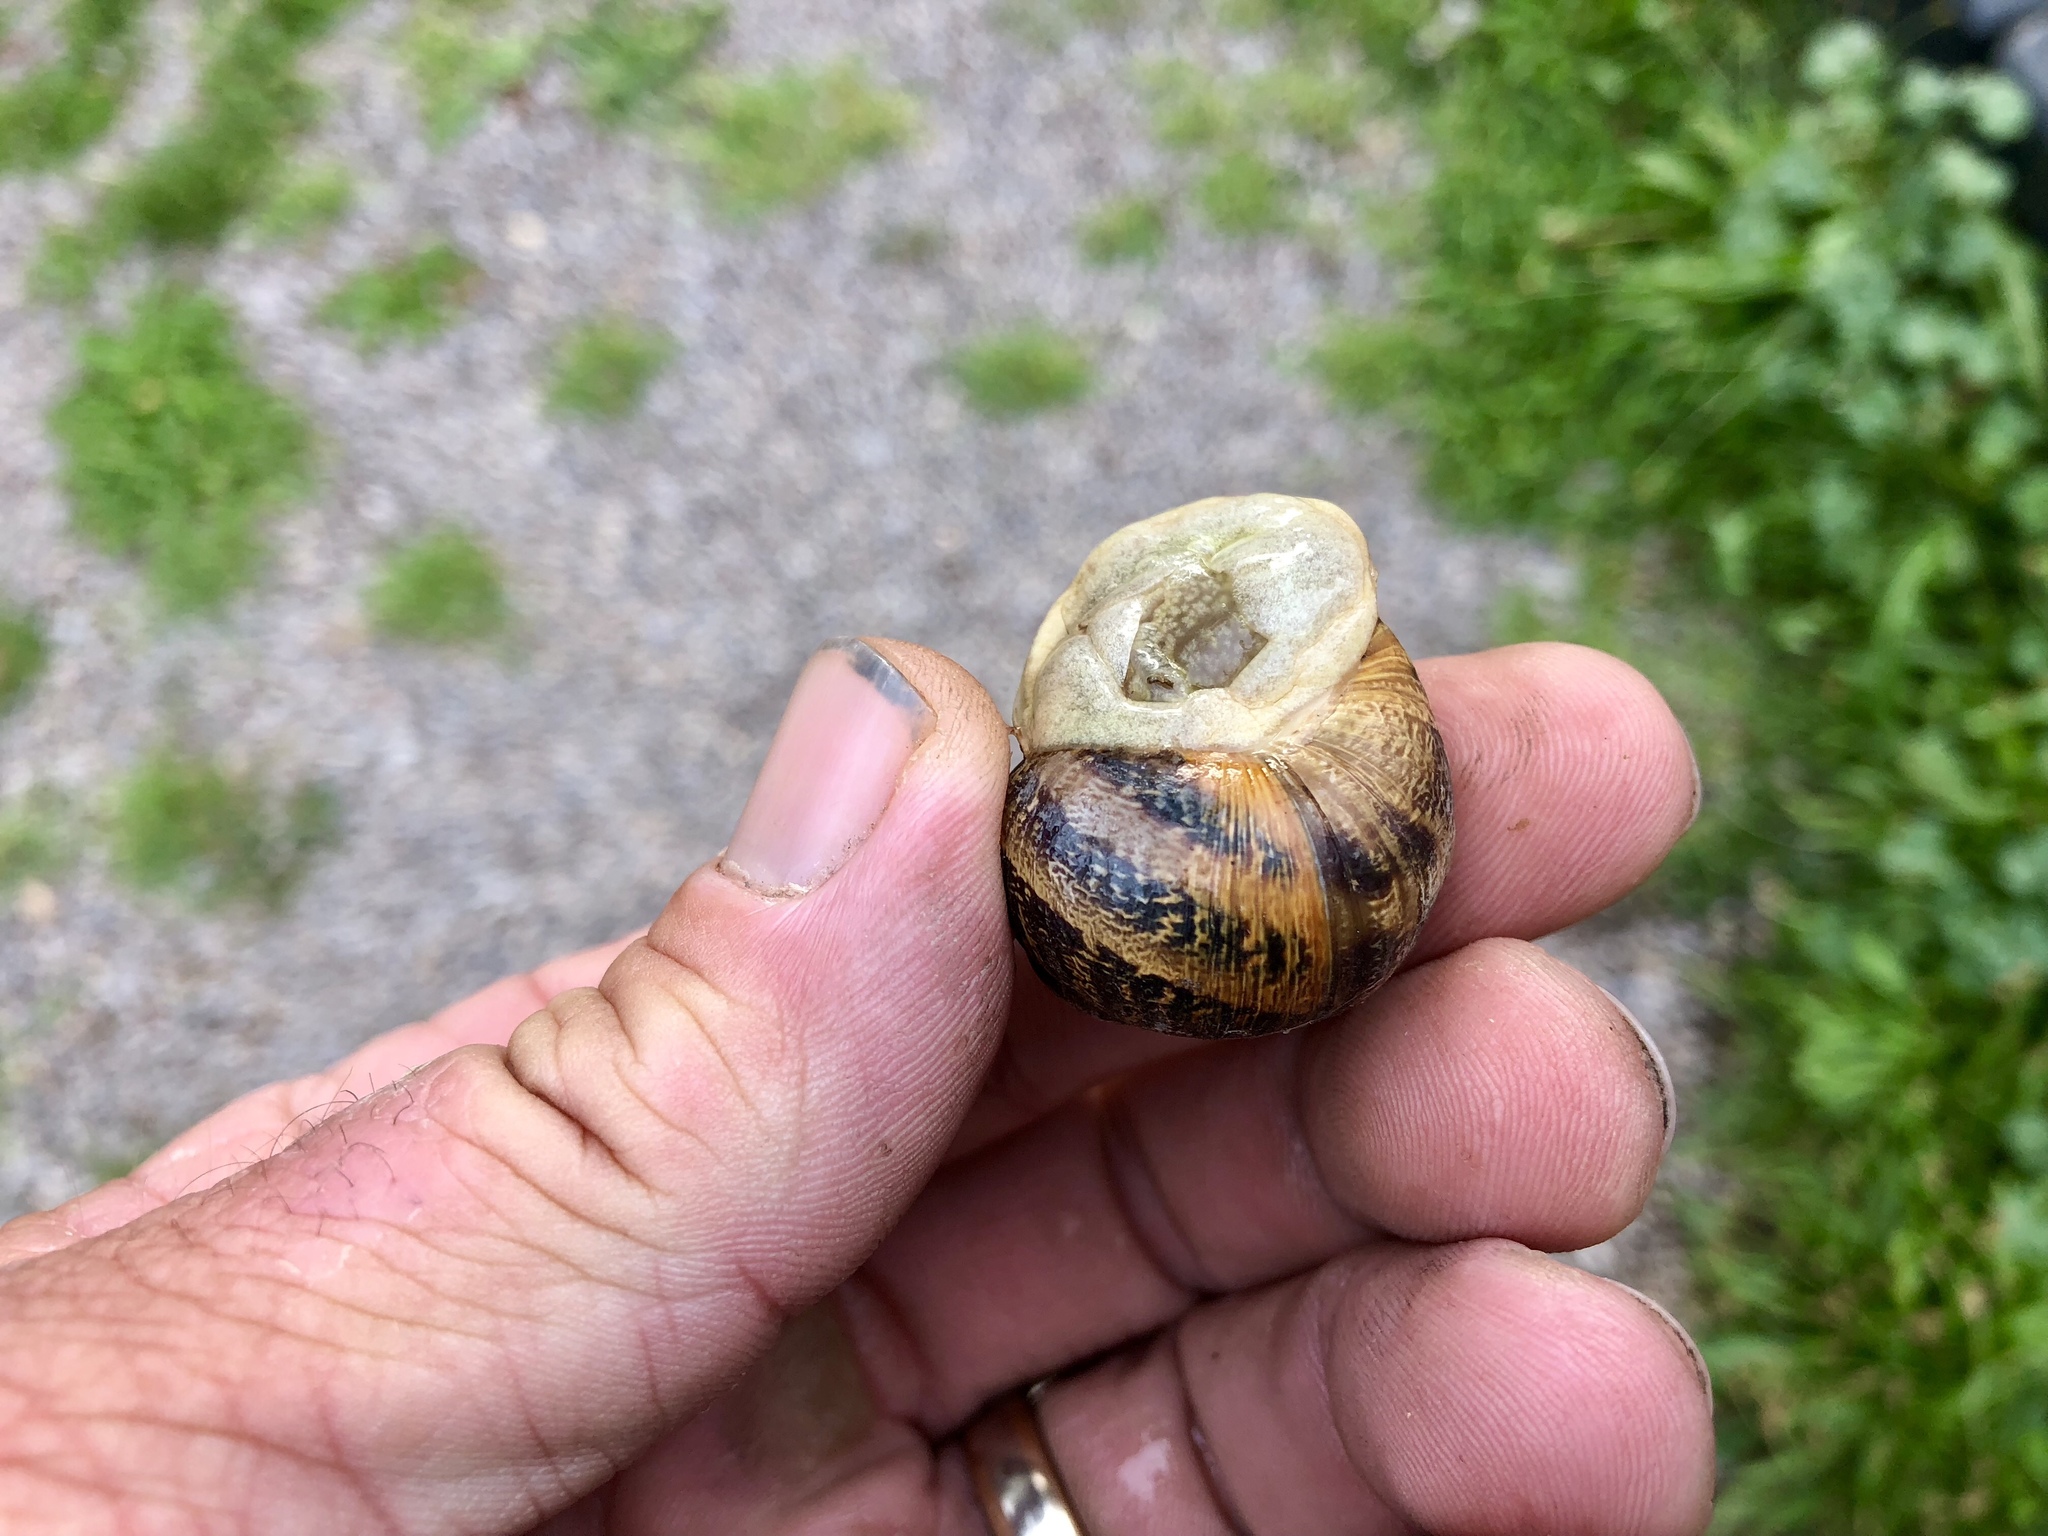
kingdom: Animalia
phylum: Mollusca
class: Gastropoda
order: Stylommatophora
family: Helicidae
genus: Cornu
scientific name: Cornu aspersum
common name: Brown garden snail
